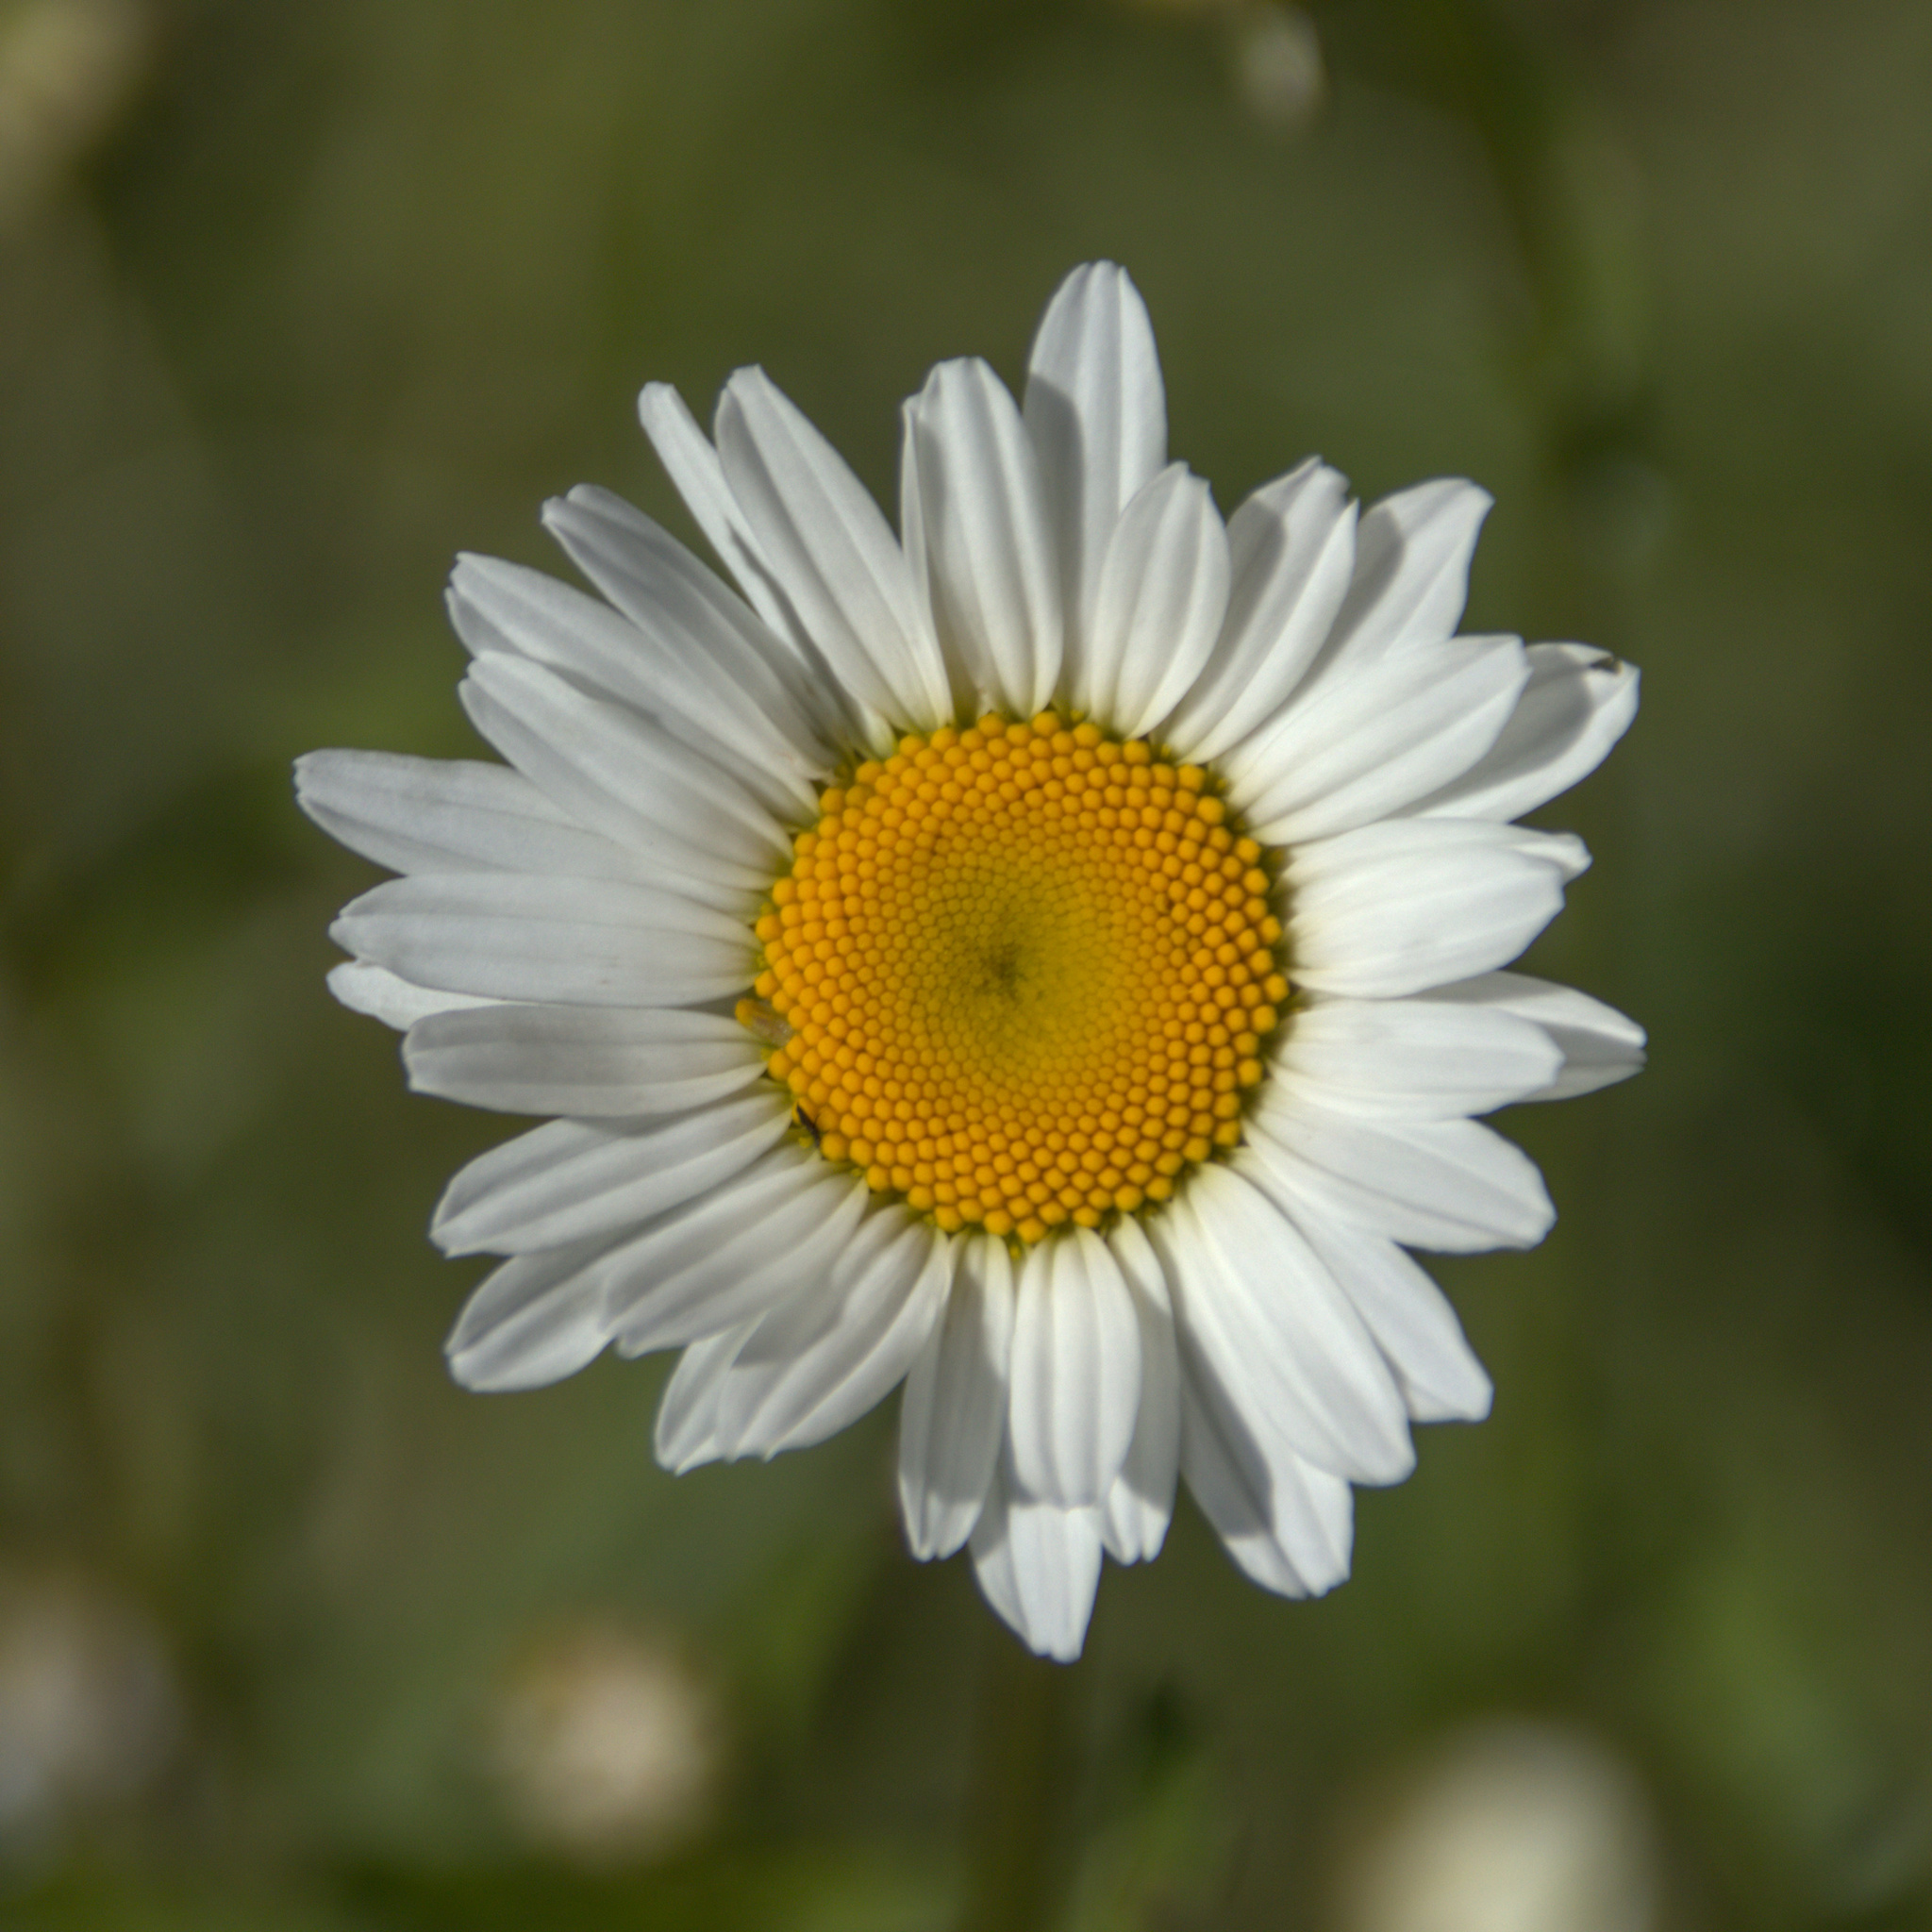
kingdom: Plantae
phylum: Tracheophyta
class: Magnoliopsida
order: Asterales
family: Asteraceae
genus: Leucanthemum
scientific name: Leucanthemum ircutianum
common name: Daisy
